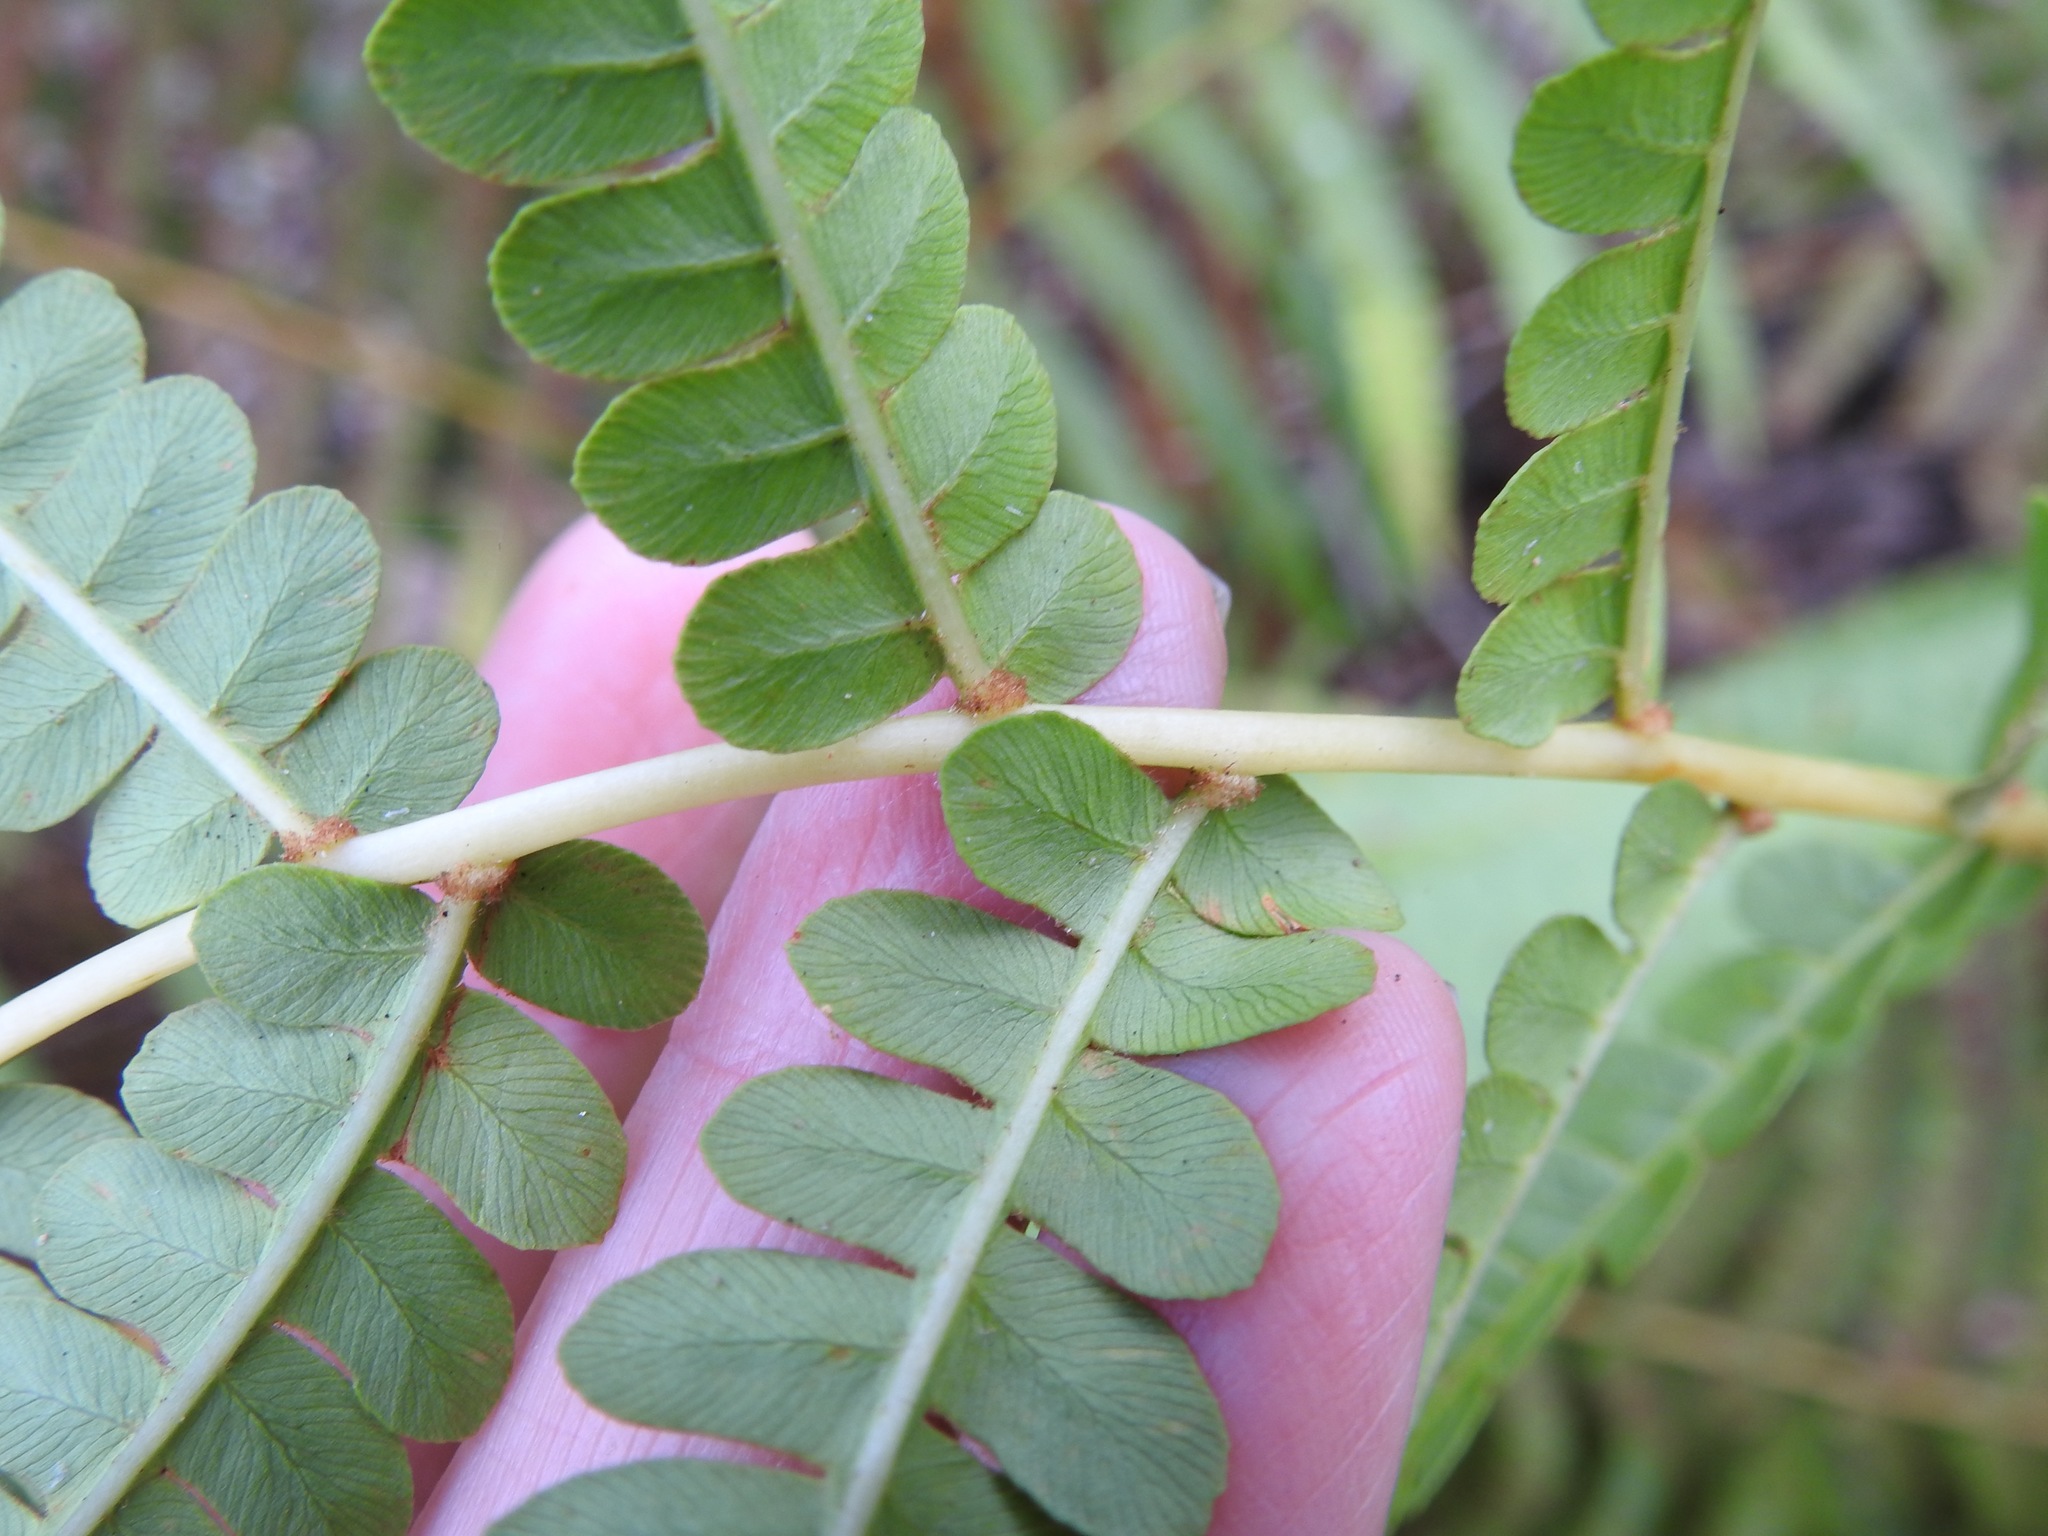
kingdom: Plantae
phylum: Tracheophyta
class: Polypodiopsida
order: Osmundales
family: Osmundaceae
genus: Osmundastrum
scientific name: Osmundastrum cinnamomeum
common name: Cinnamon fern
